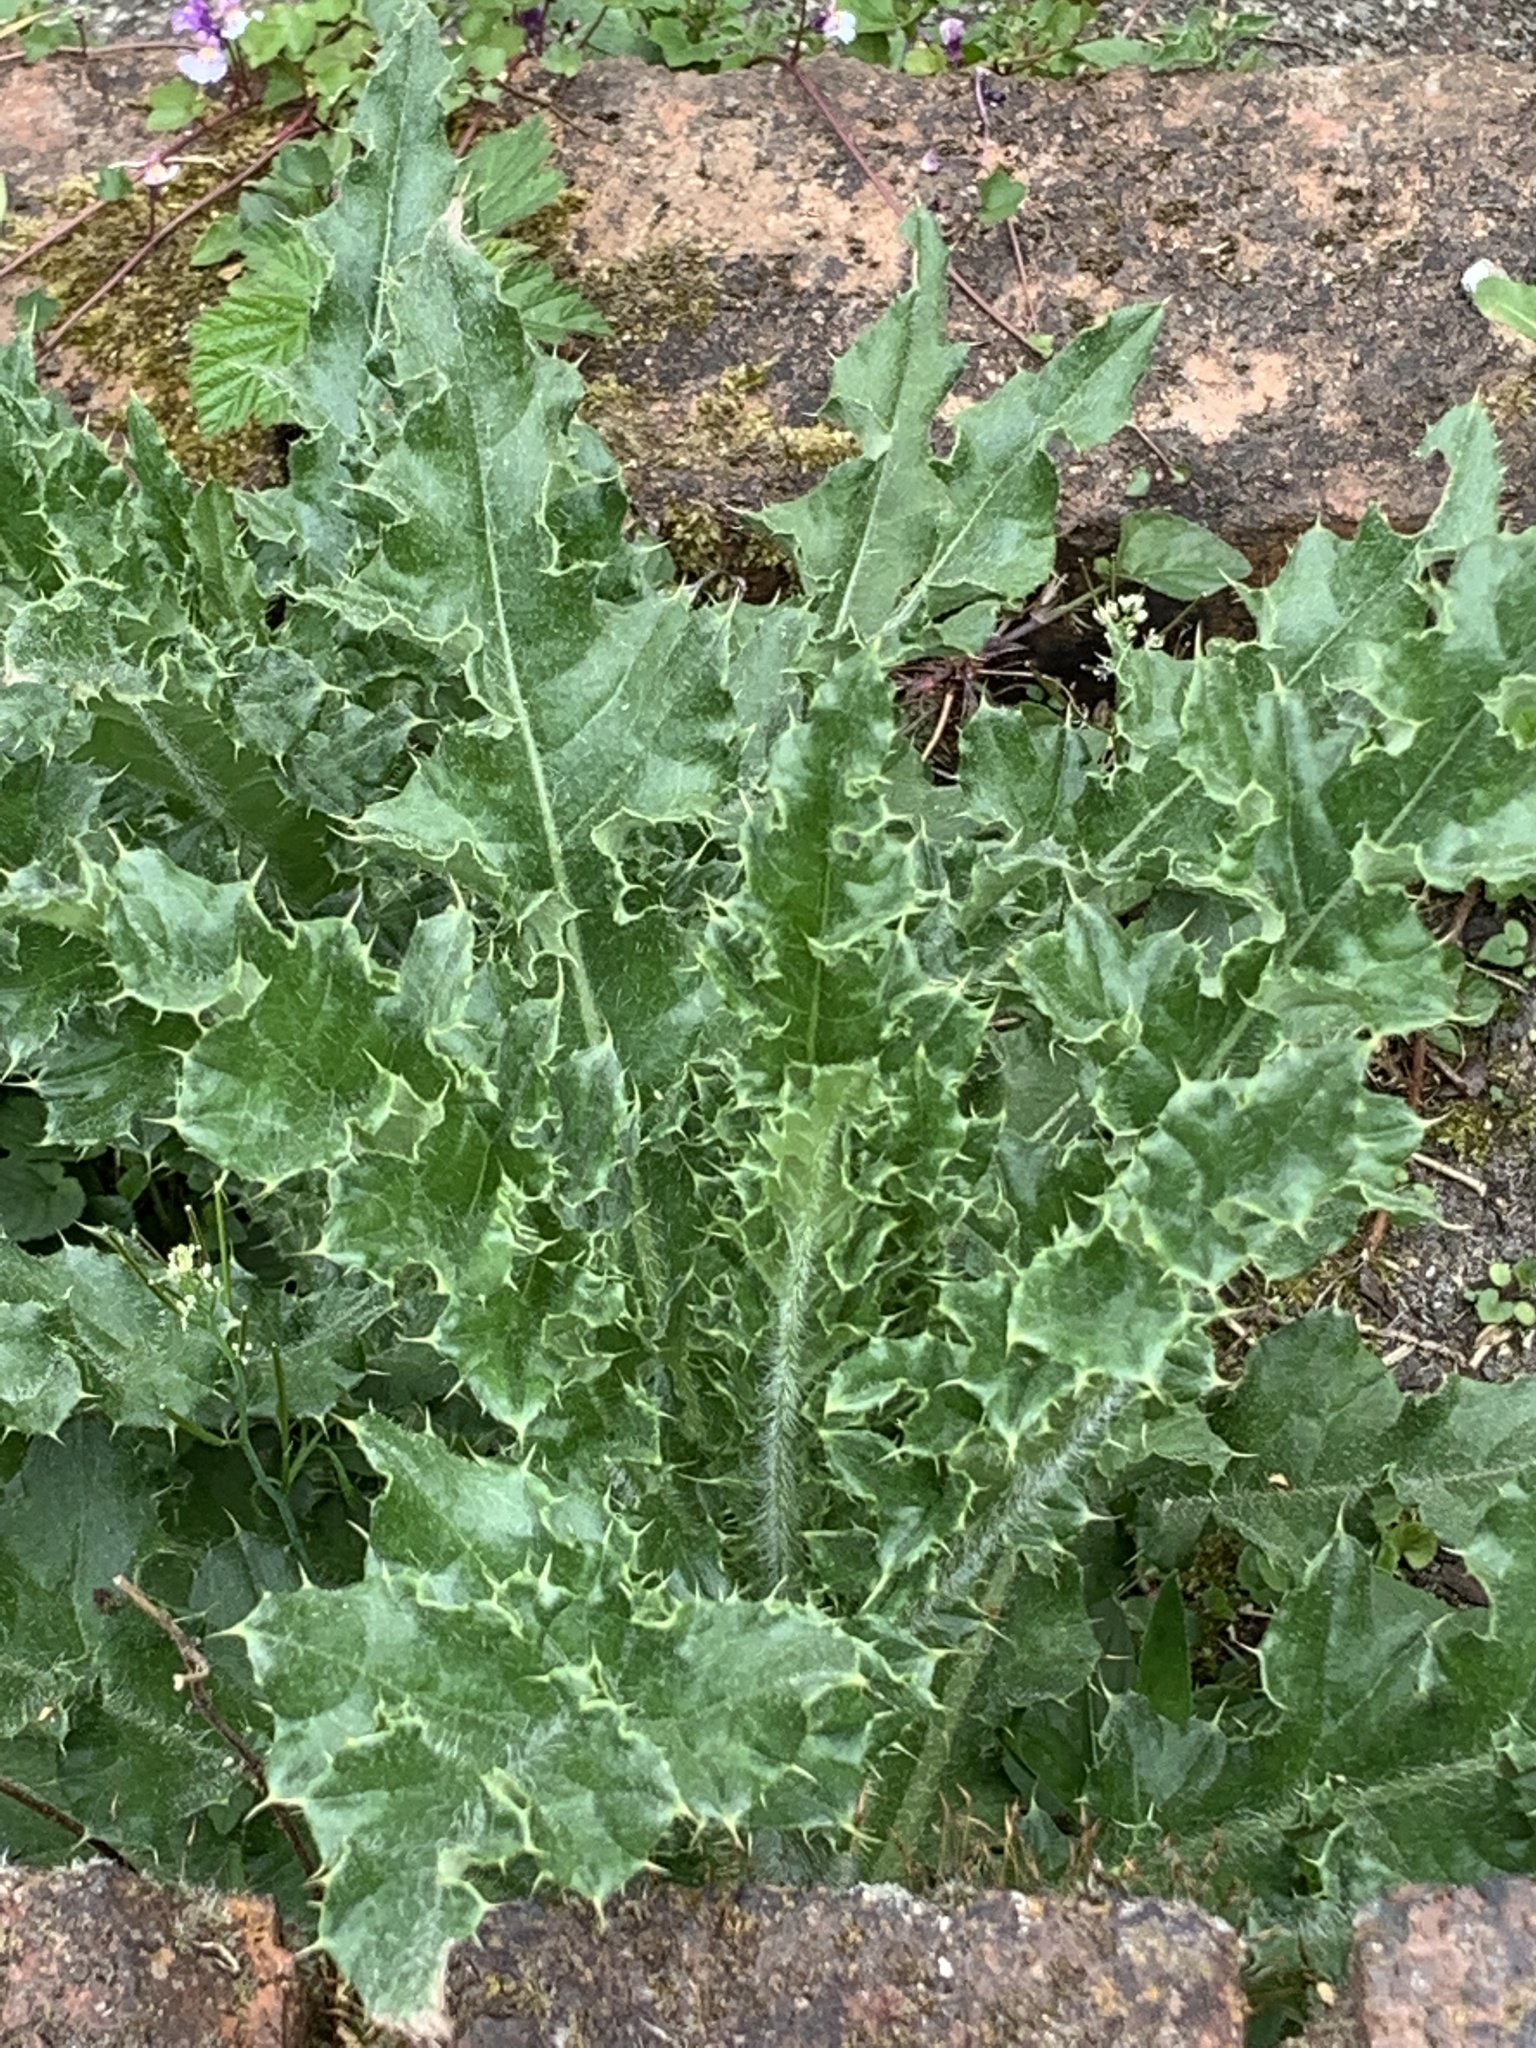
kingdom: Plantae
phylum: Tracheophyta
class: Magnoliopsida
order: Asterales
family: Asteraceae
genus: Cirsium
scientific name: Cirsium arvense
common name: Creeping thistle
